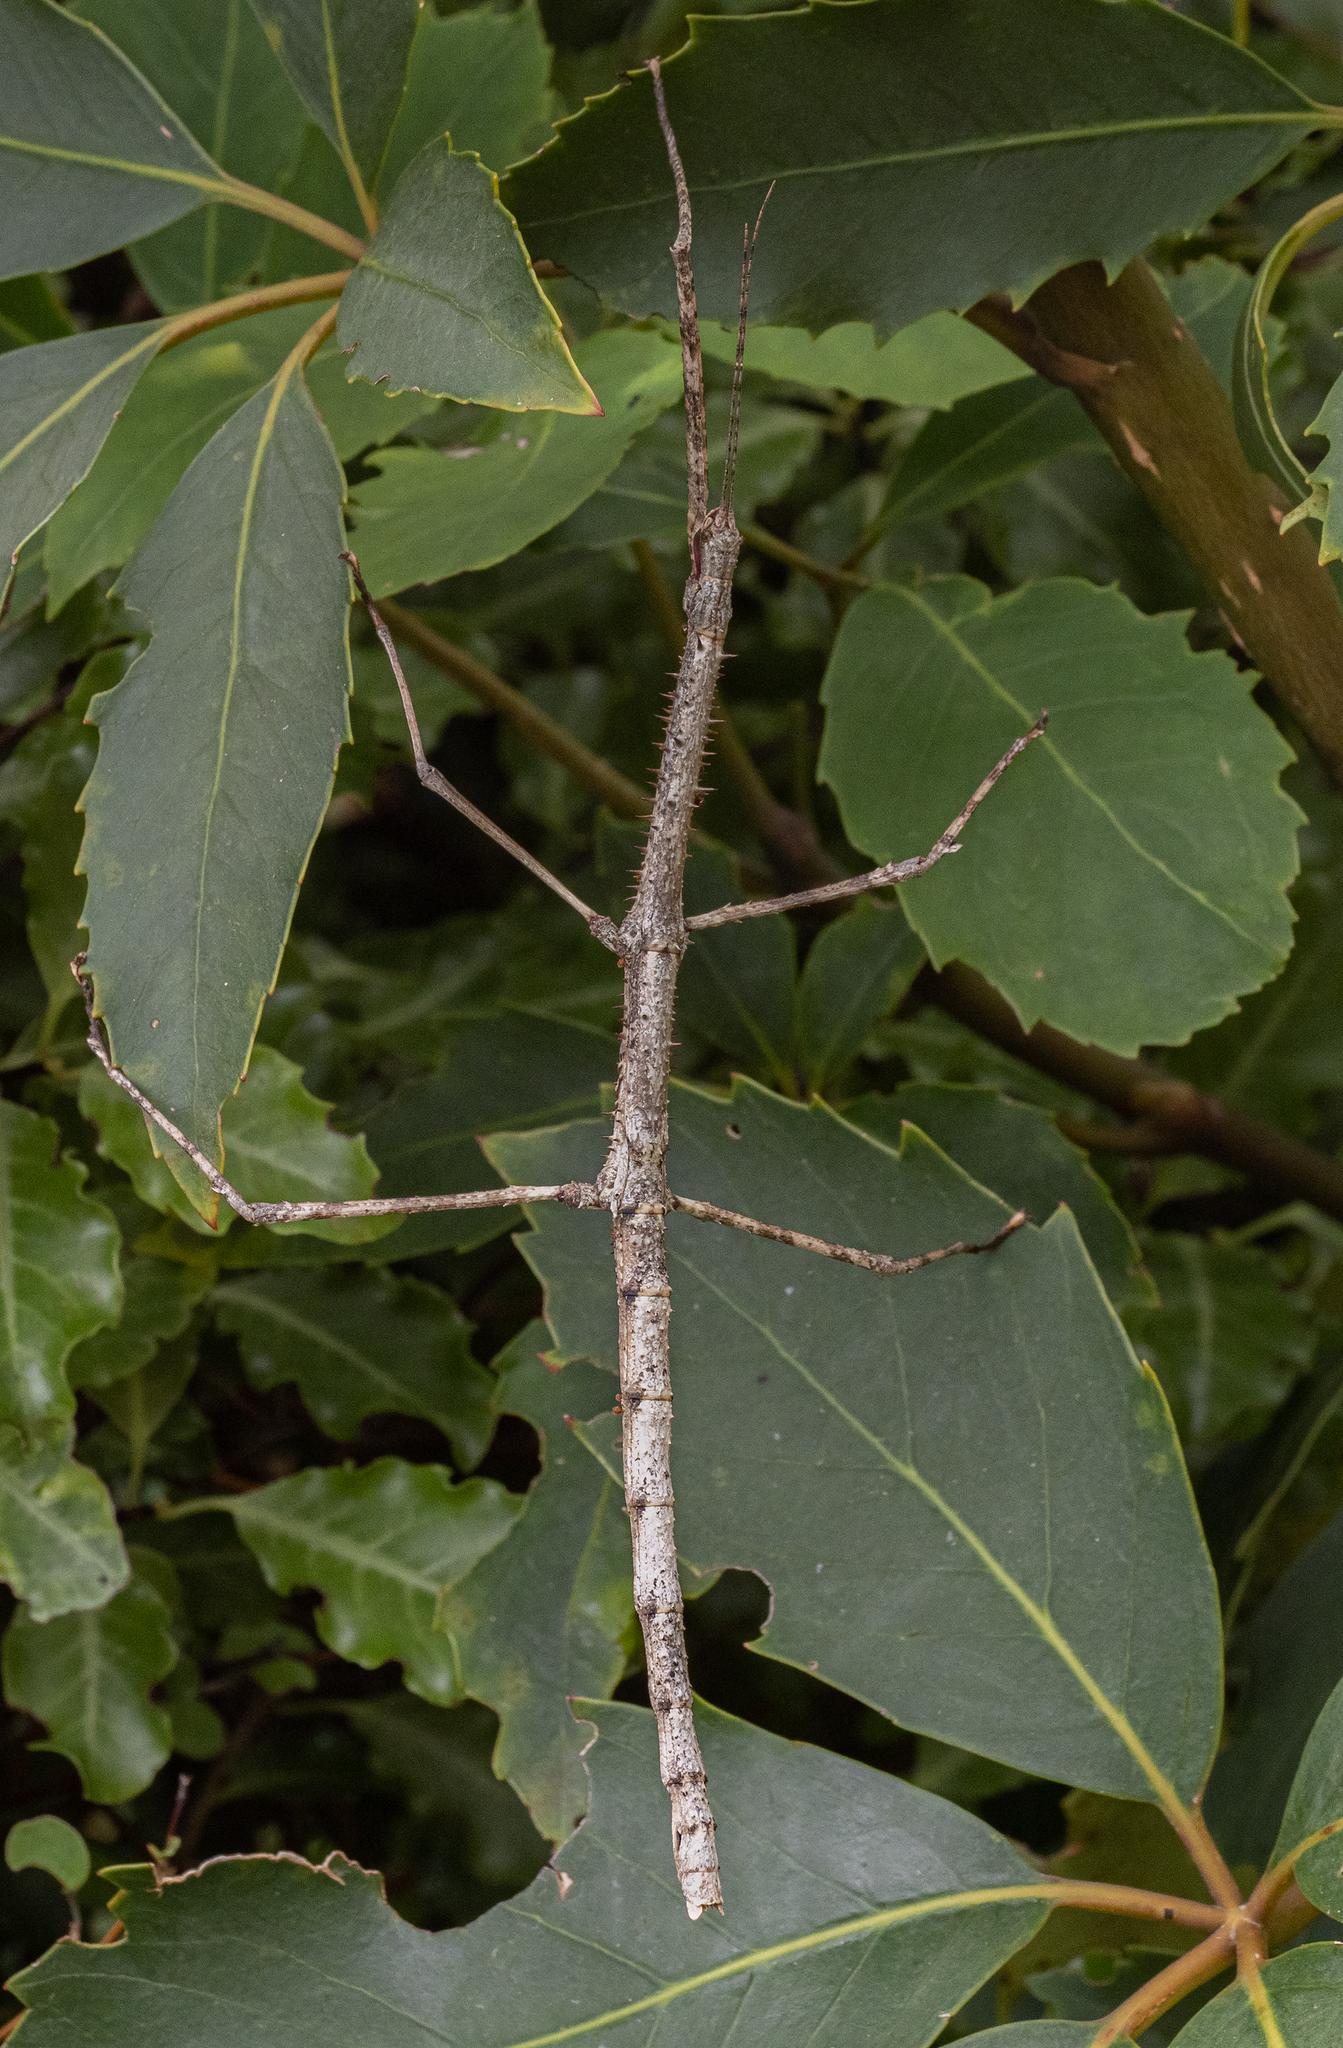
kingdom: Animalia
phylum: Arthropoda
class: Insecta
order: Phasmida
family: Phasmatidae
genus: Argosarchus
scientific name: Argosarchus horridus
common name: Bristly stick insect
